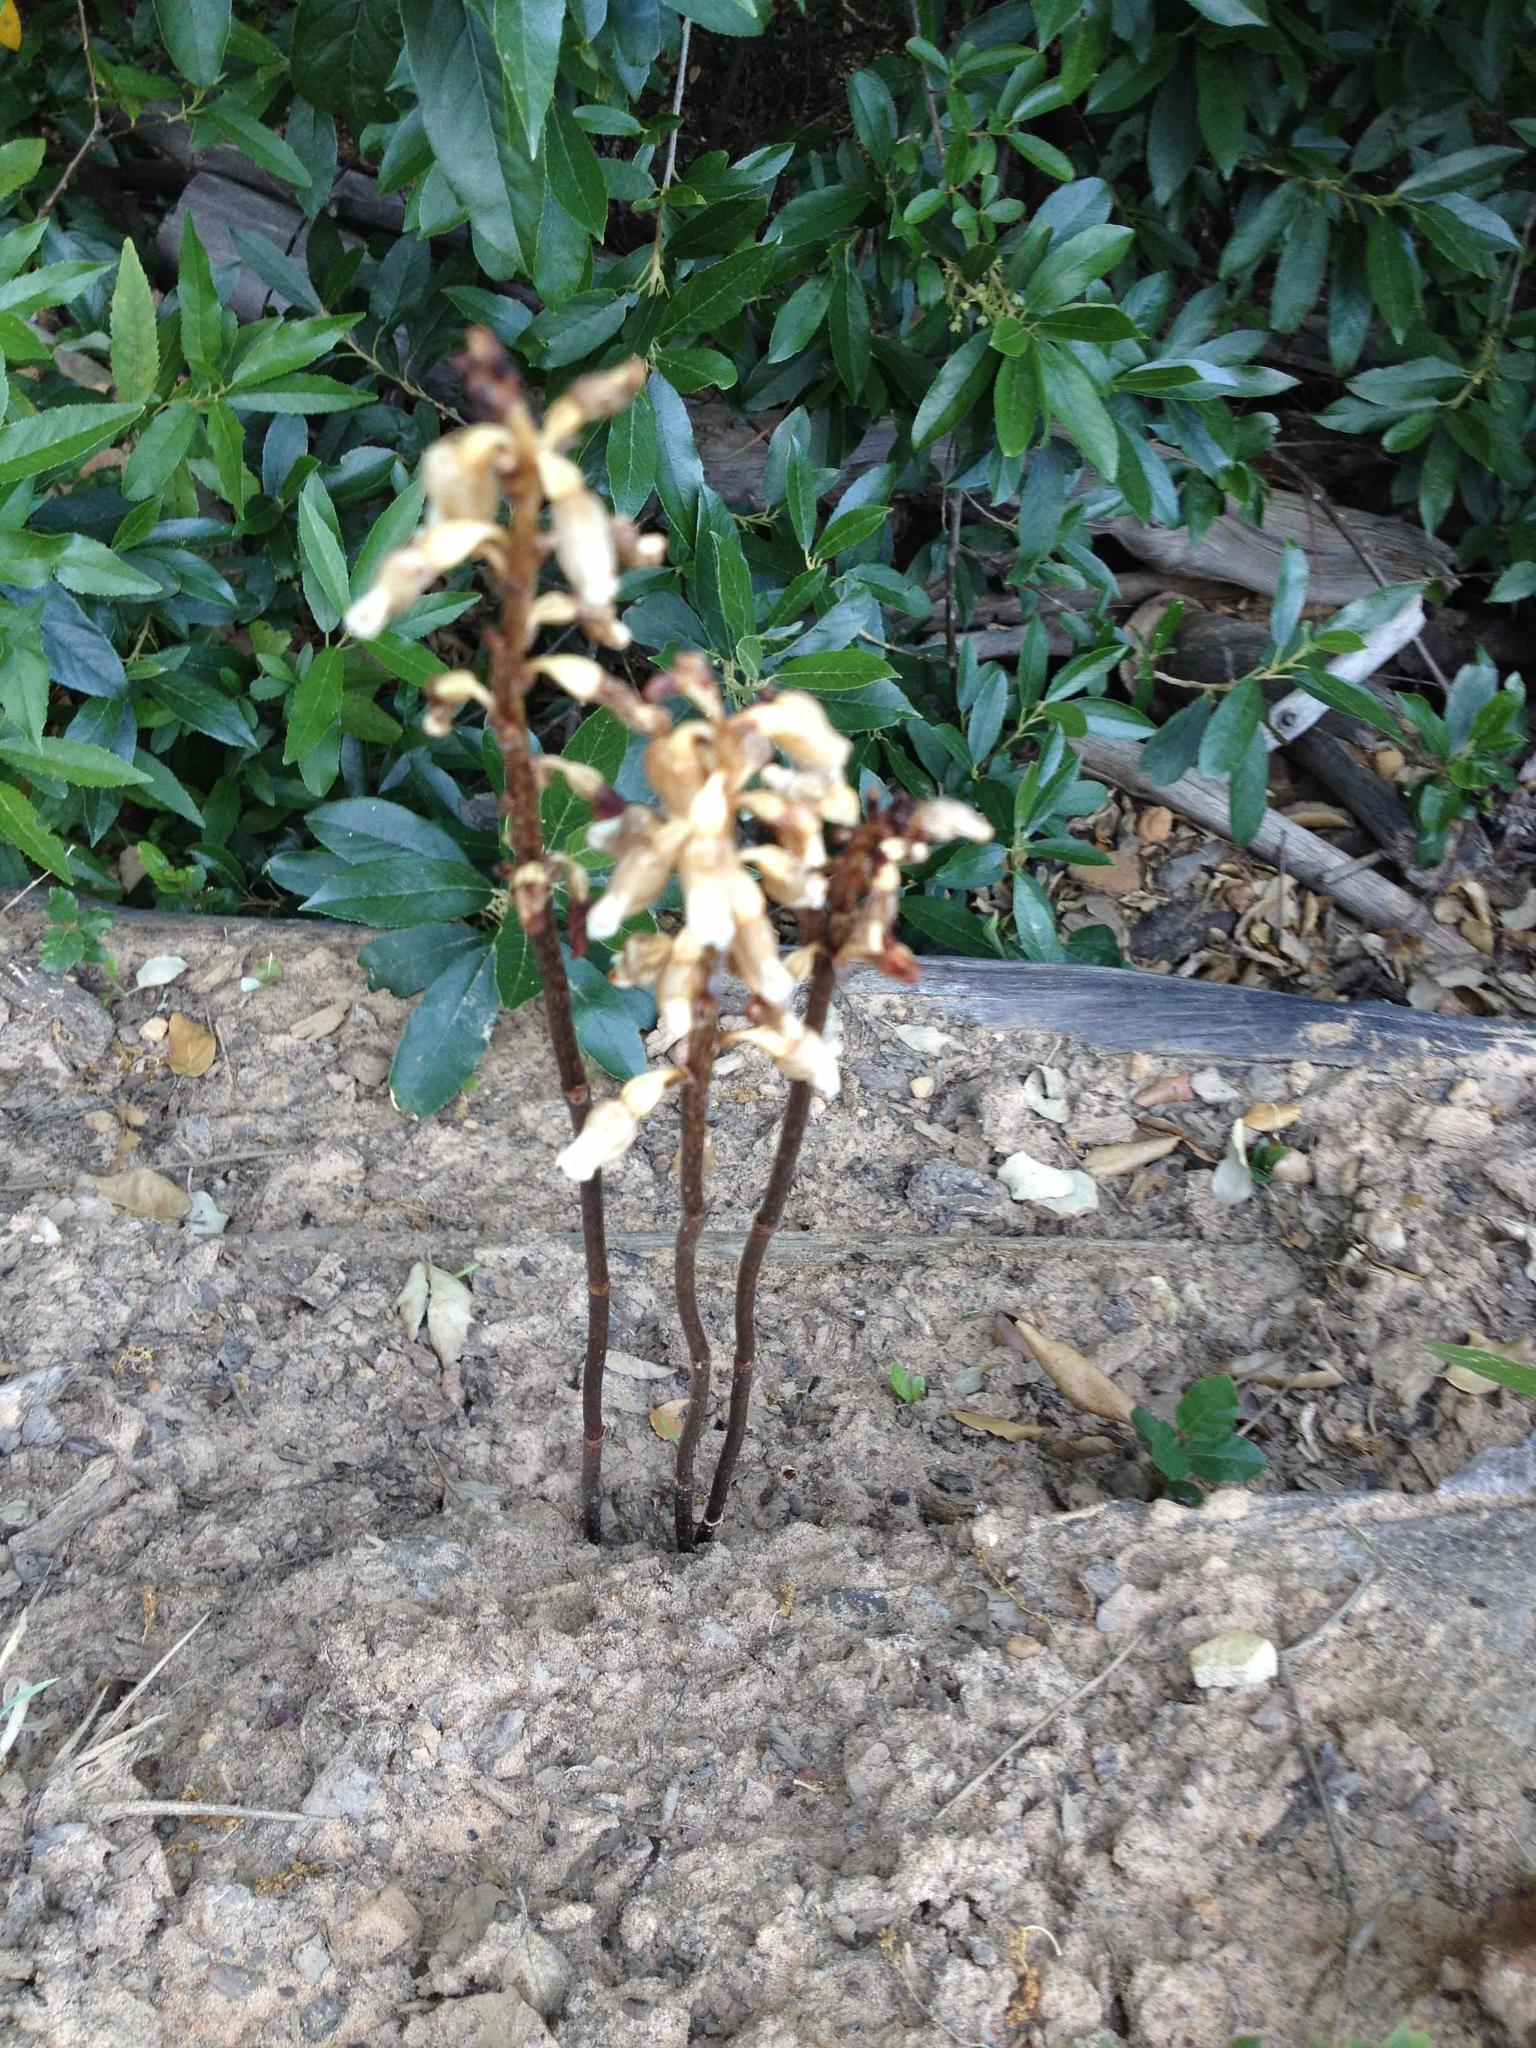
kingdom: Plantae
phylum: Tracheophyta
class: Liliopsida
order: Asparagales
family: Orchidaceae
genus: Gastrodia
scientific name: Gastrodia sesamoides
